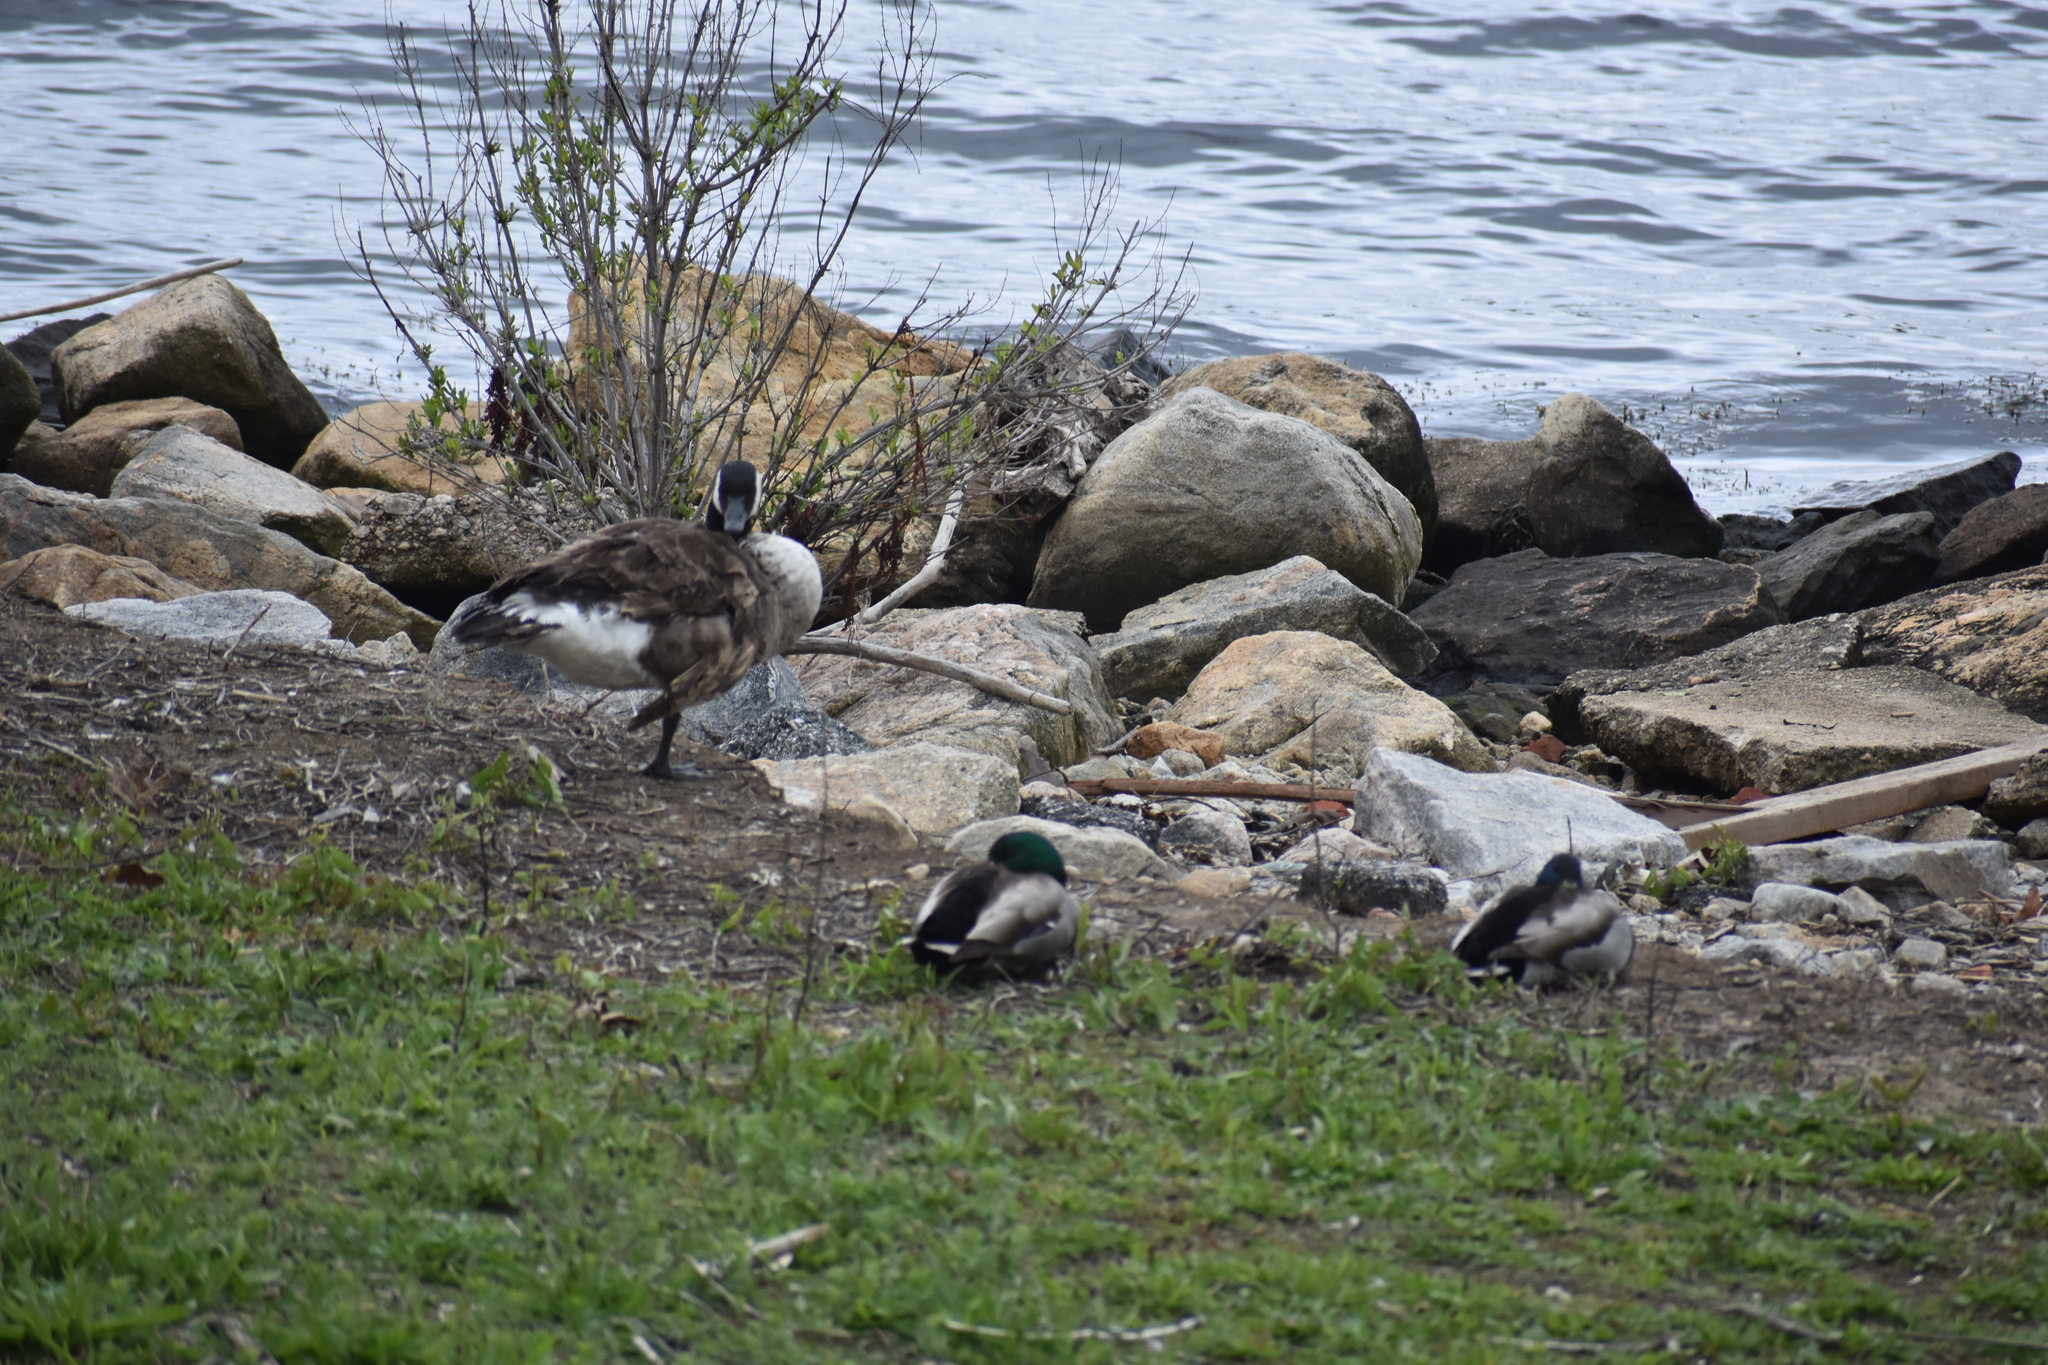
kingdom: Animalia
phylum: Chordata
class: Aves
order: Anseriformes
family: Anatidae
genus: Anas
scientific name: Anas platyrhynchos
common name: Mallard
